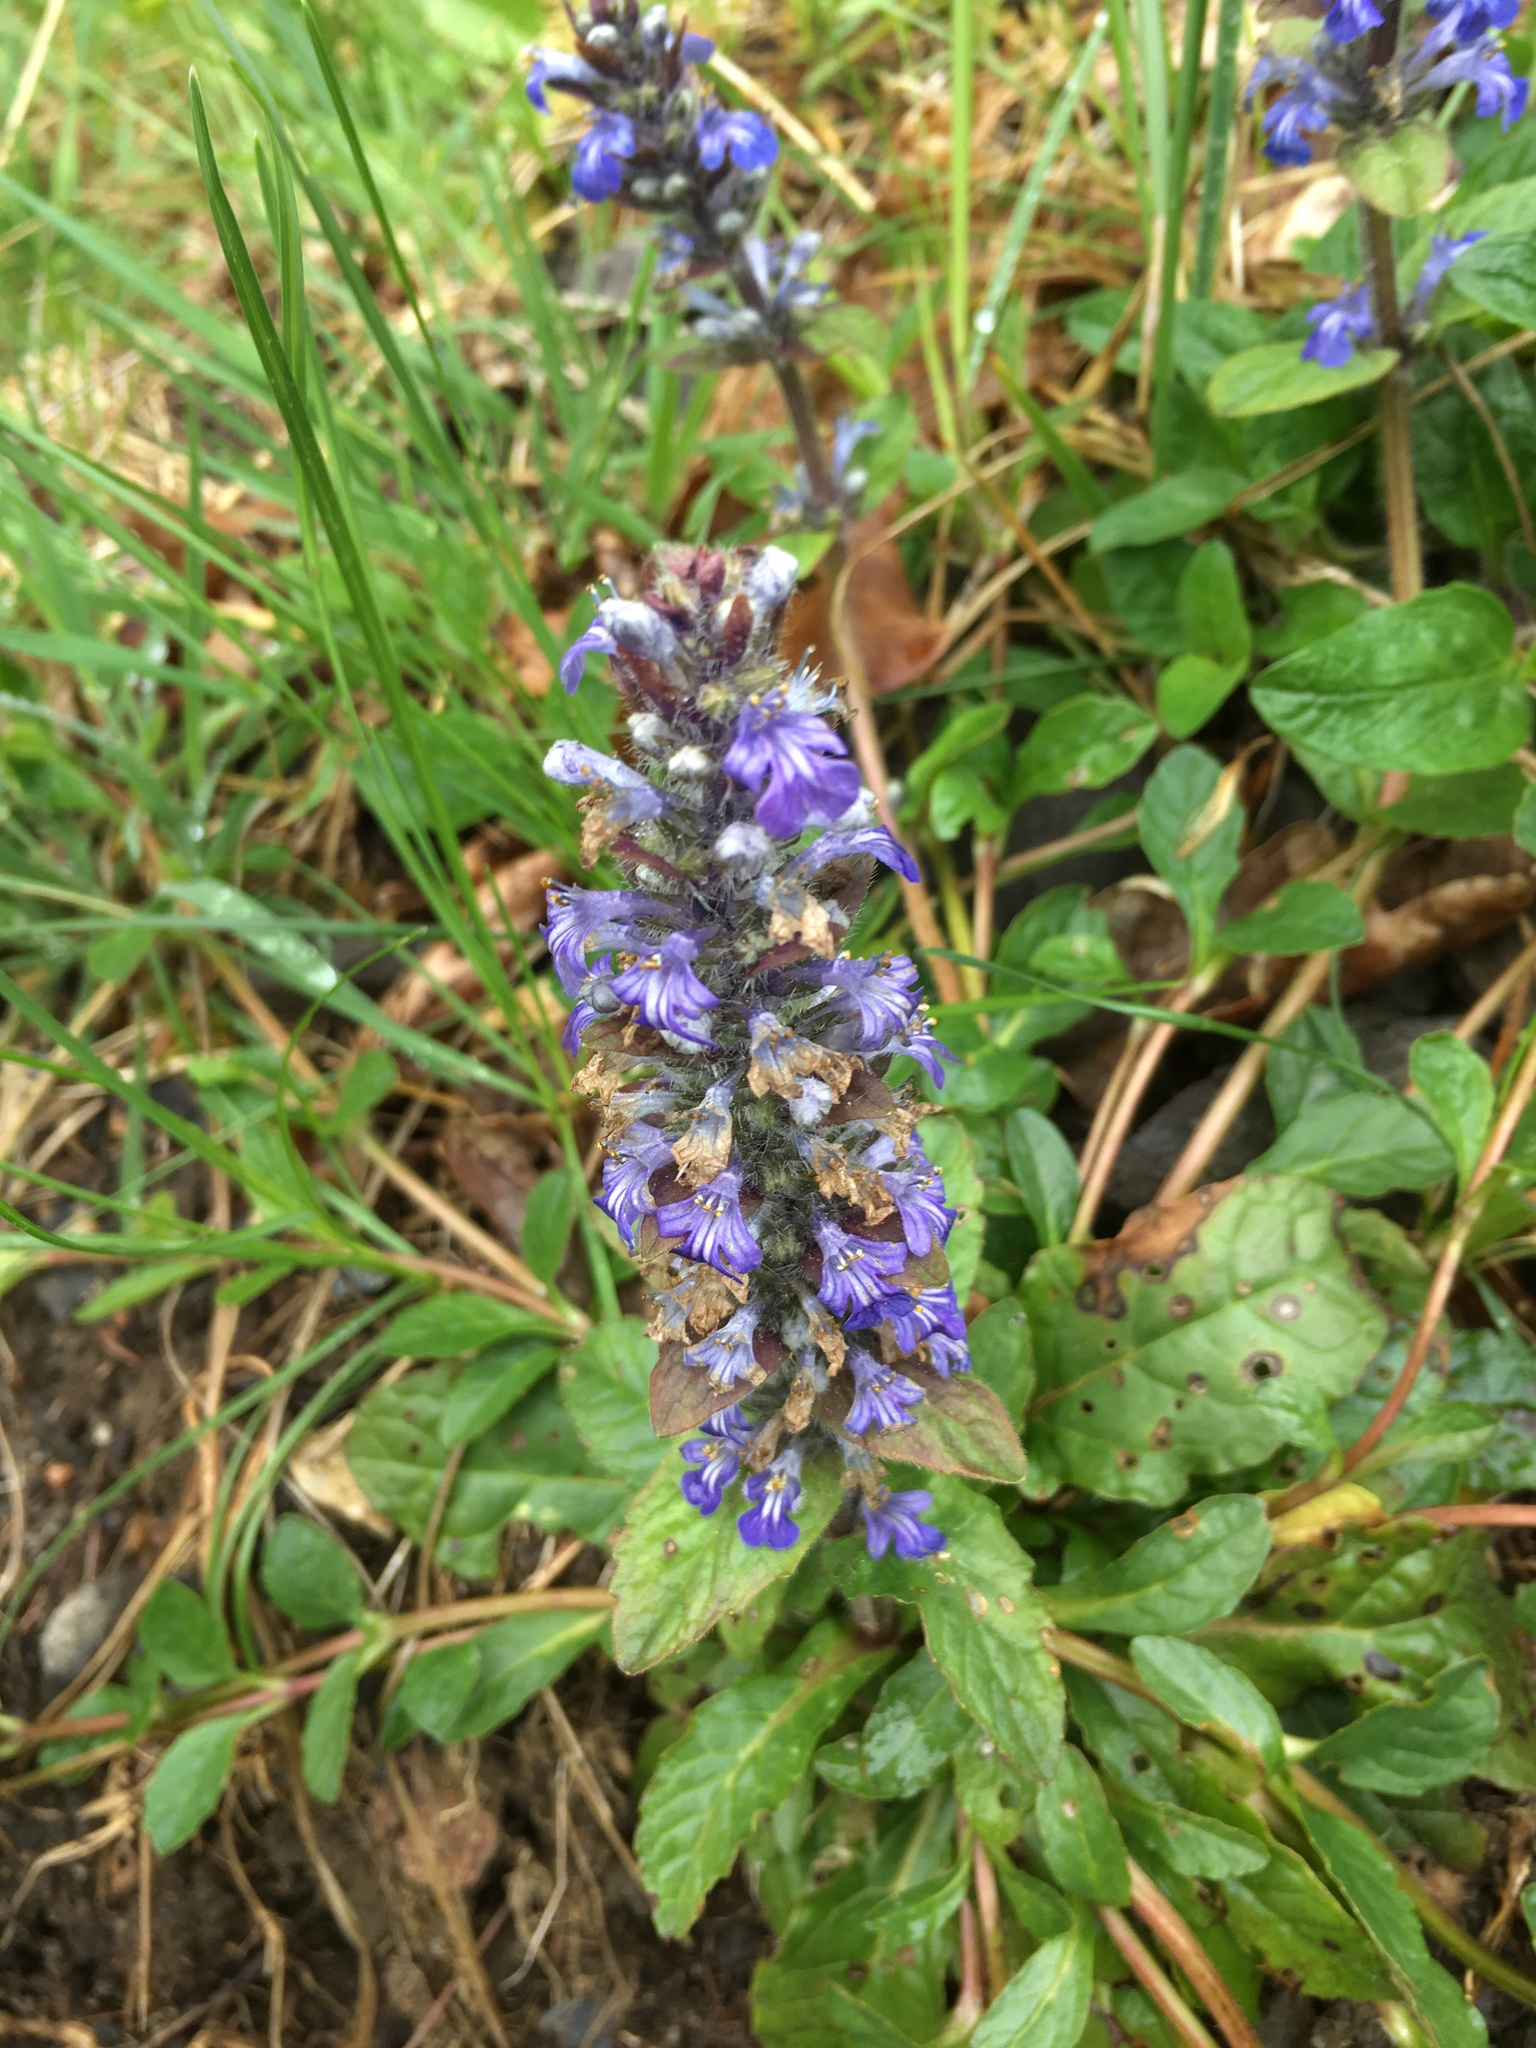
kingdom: Plantae
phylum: Tracheophyta
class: Magnoliopsida
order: Lamiales
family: Lamiaceae
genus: Ajuga
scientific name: Ajuga reptans
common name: Bugle
